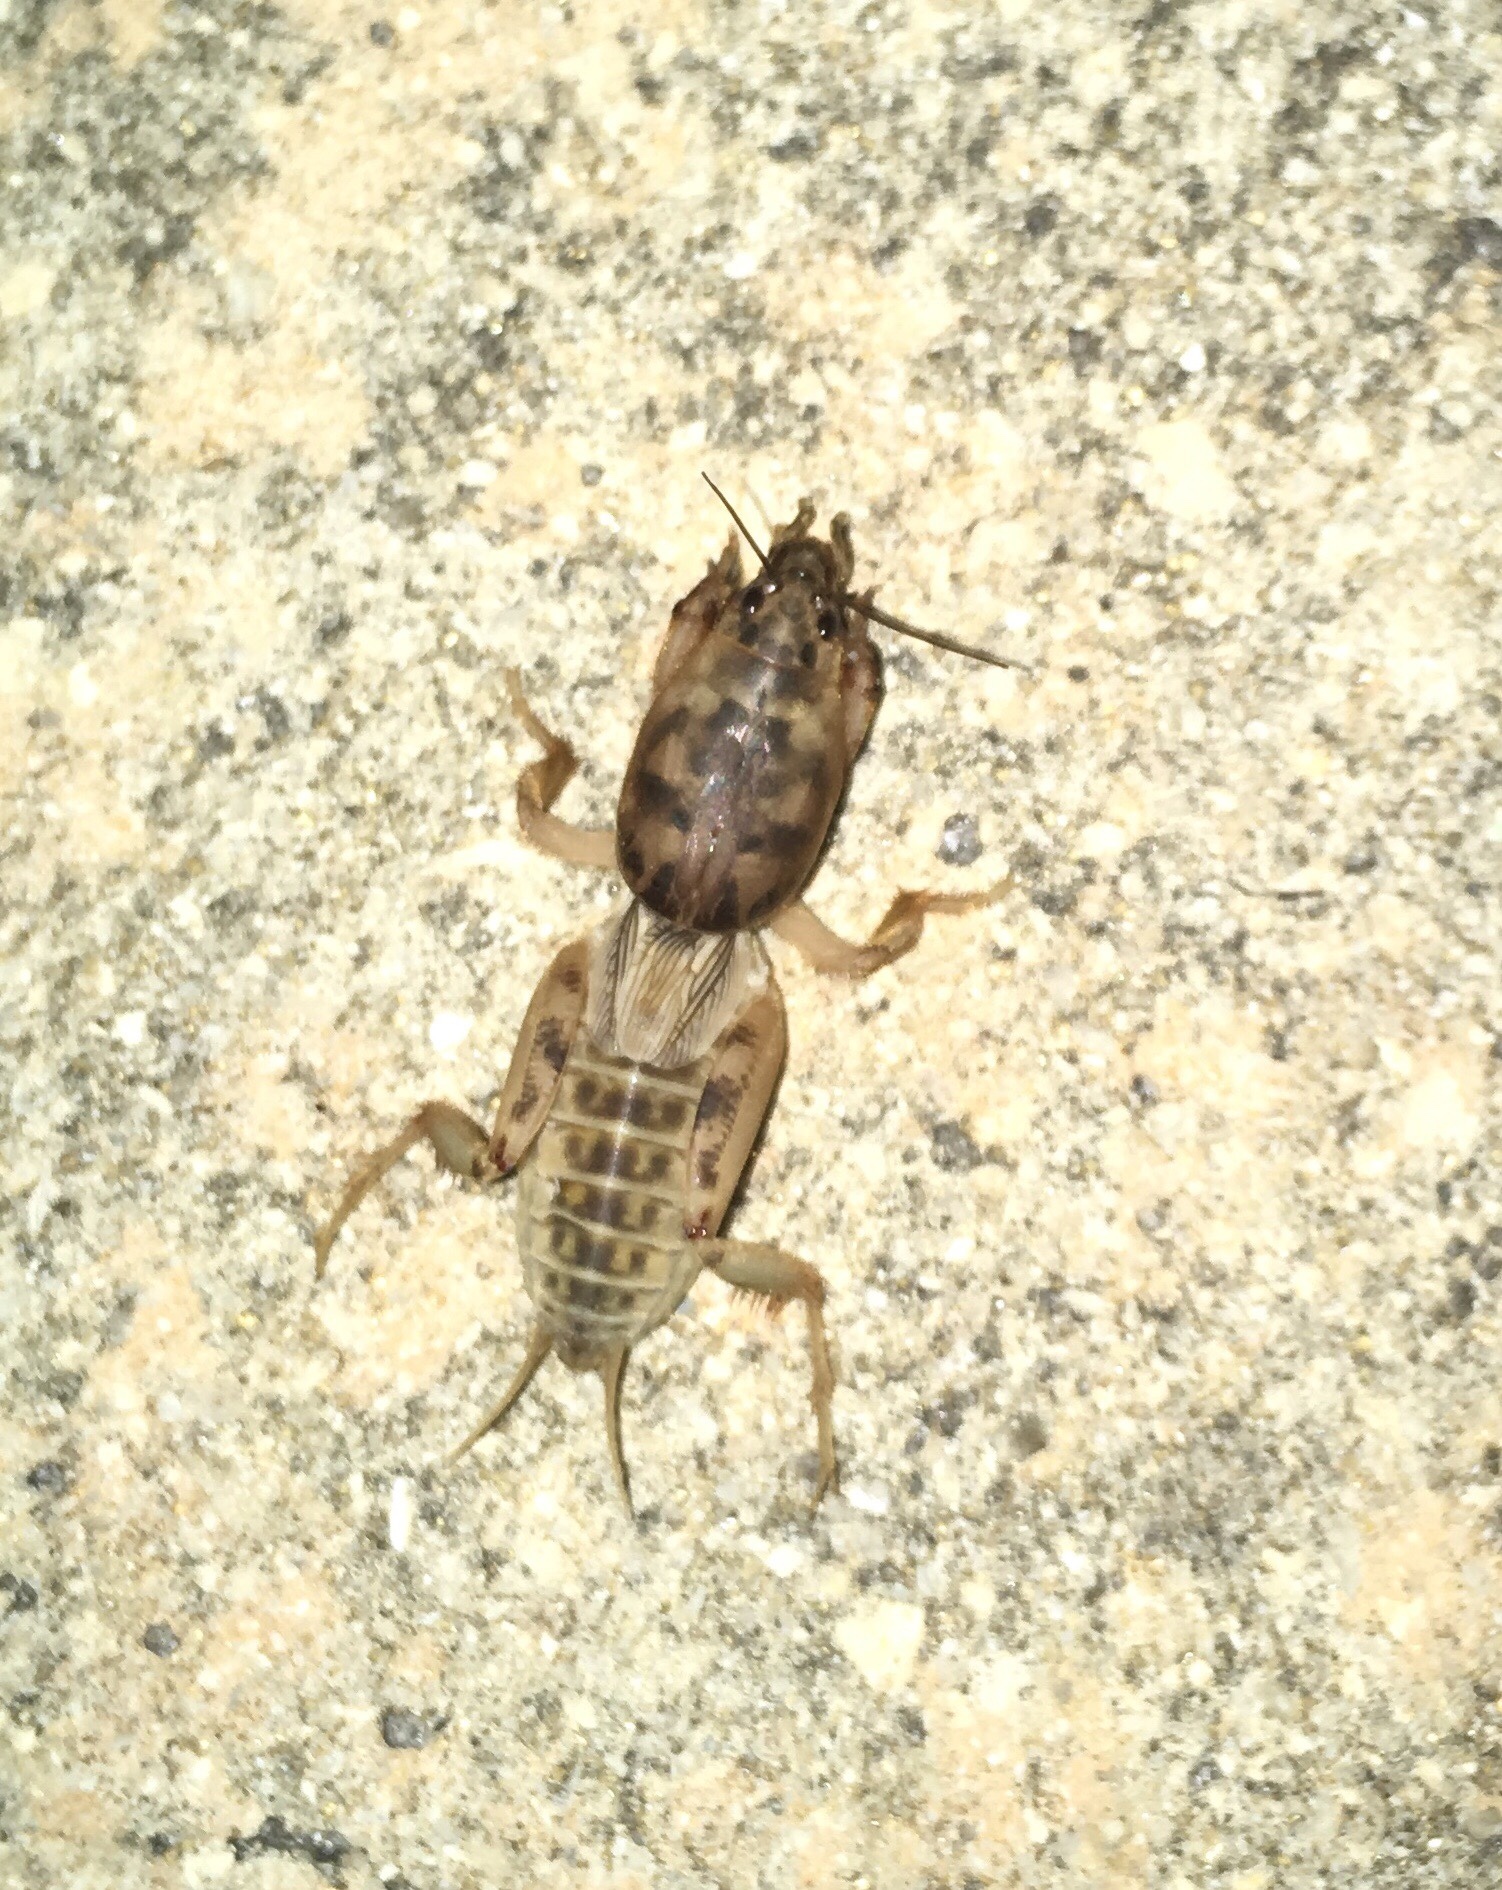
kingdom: Animalia
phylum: Arthropoda
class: Insecta
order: Orthoptera
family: Gryllotalpidae
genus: Neoscapteriscus
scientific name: Neoscapteriscus abbreviatus
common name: Short-winged mole cricket
